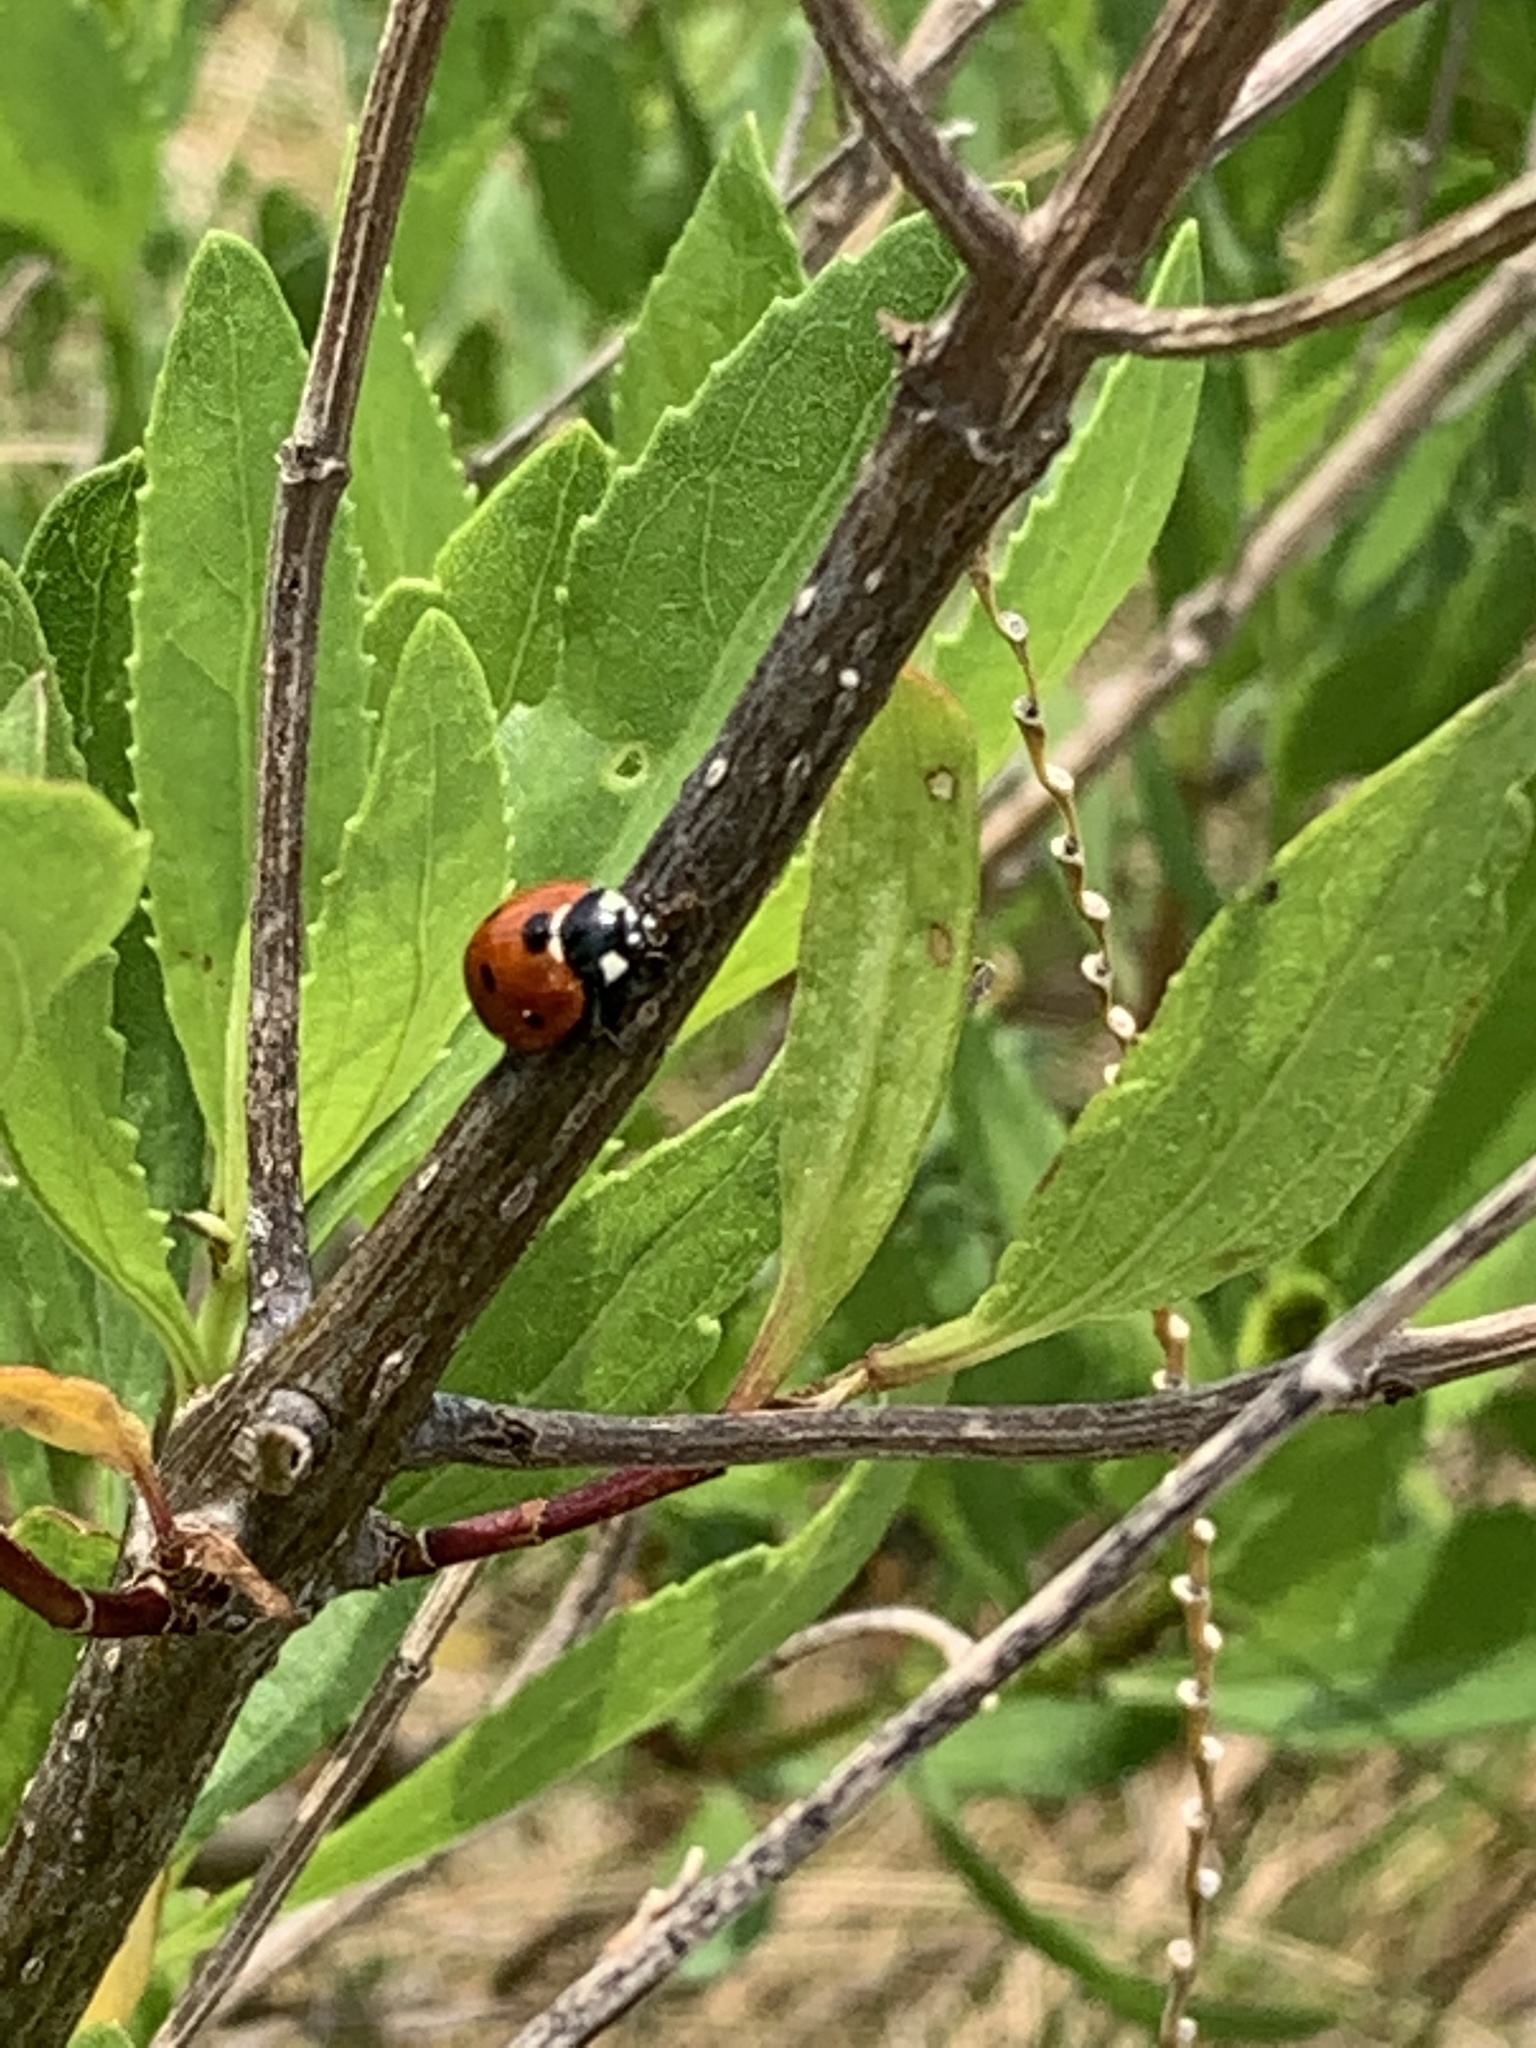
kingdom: Animalia
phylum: Arthropoda
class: Insecta
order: Coleoptera
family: Coccinellidae
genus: Coccinella
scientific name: Coccinella septempunctata
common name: Sevenspotted lady beetle
